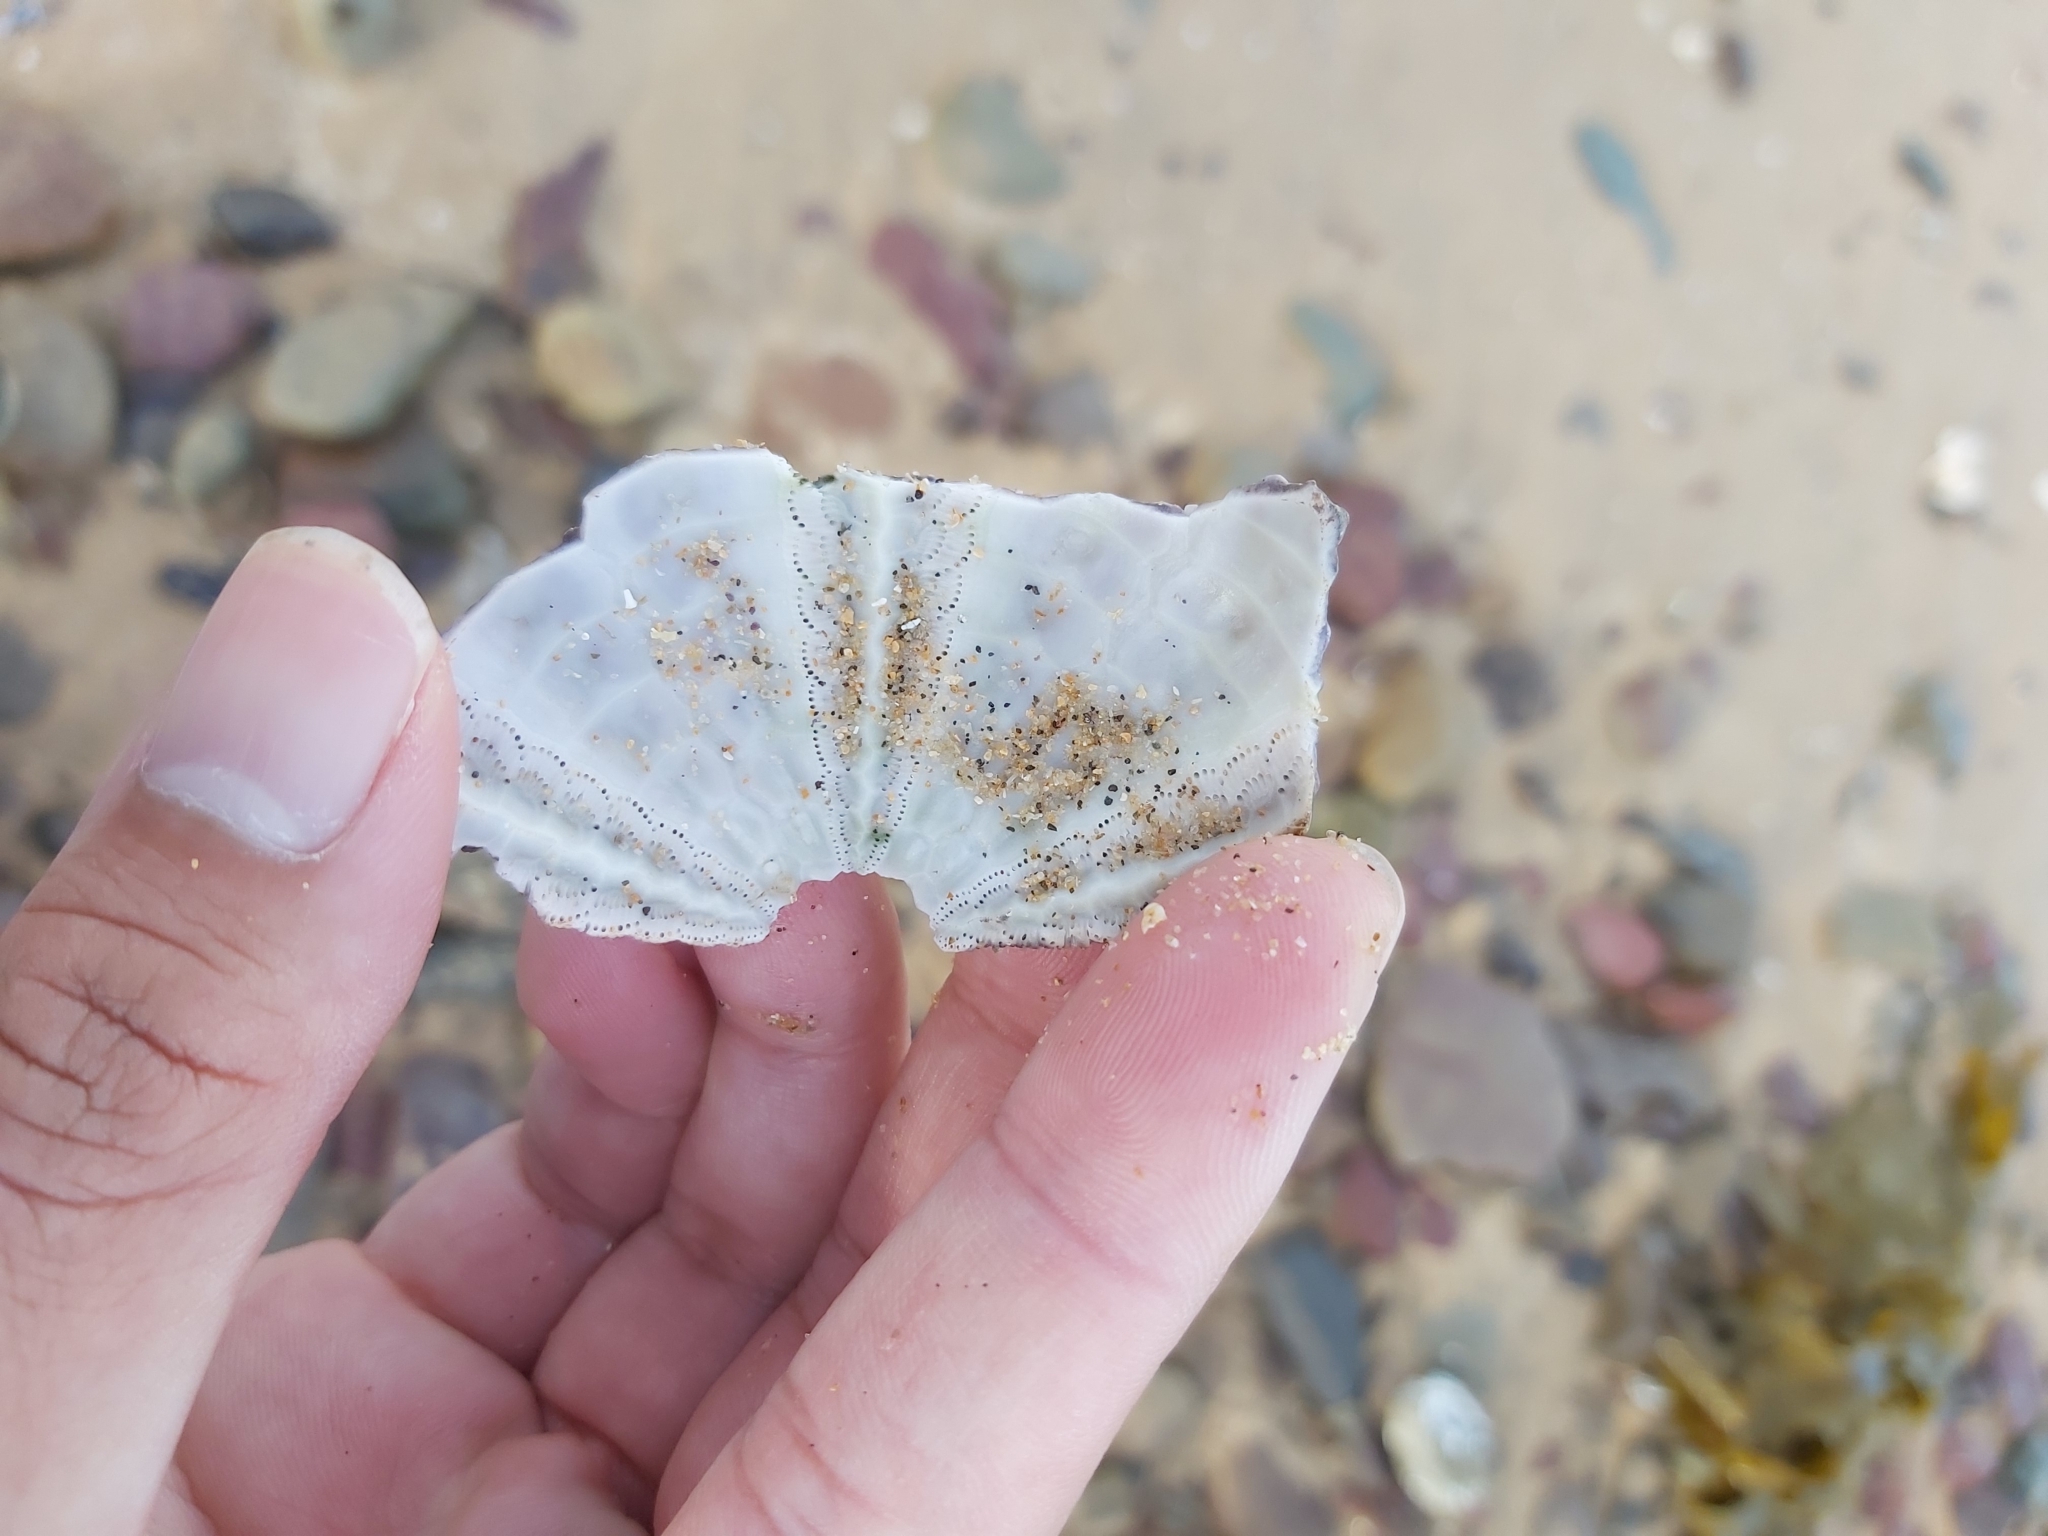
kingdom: Animalia
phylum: Echinodermata
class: Echinoidea
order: Camarodonta
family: Echinometridae
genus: Heliocidaris
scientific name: Heliocidaris erythrogramma
